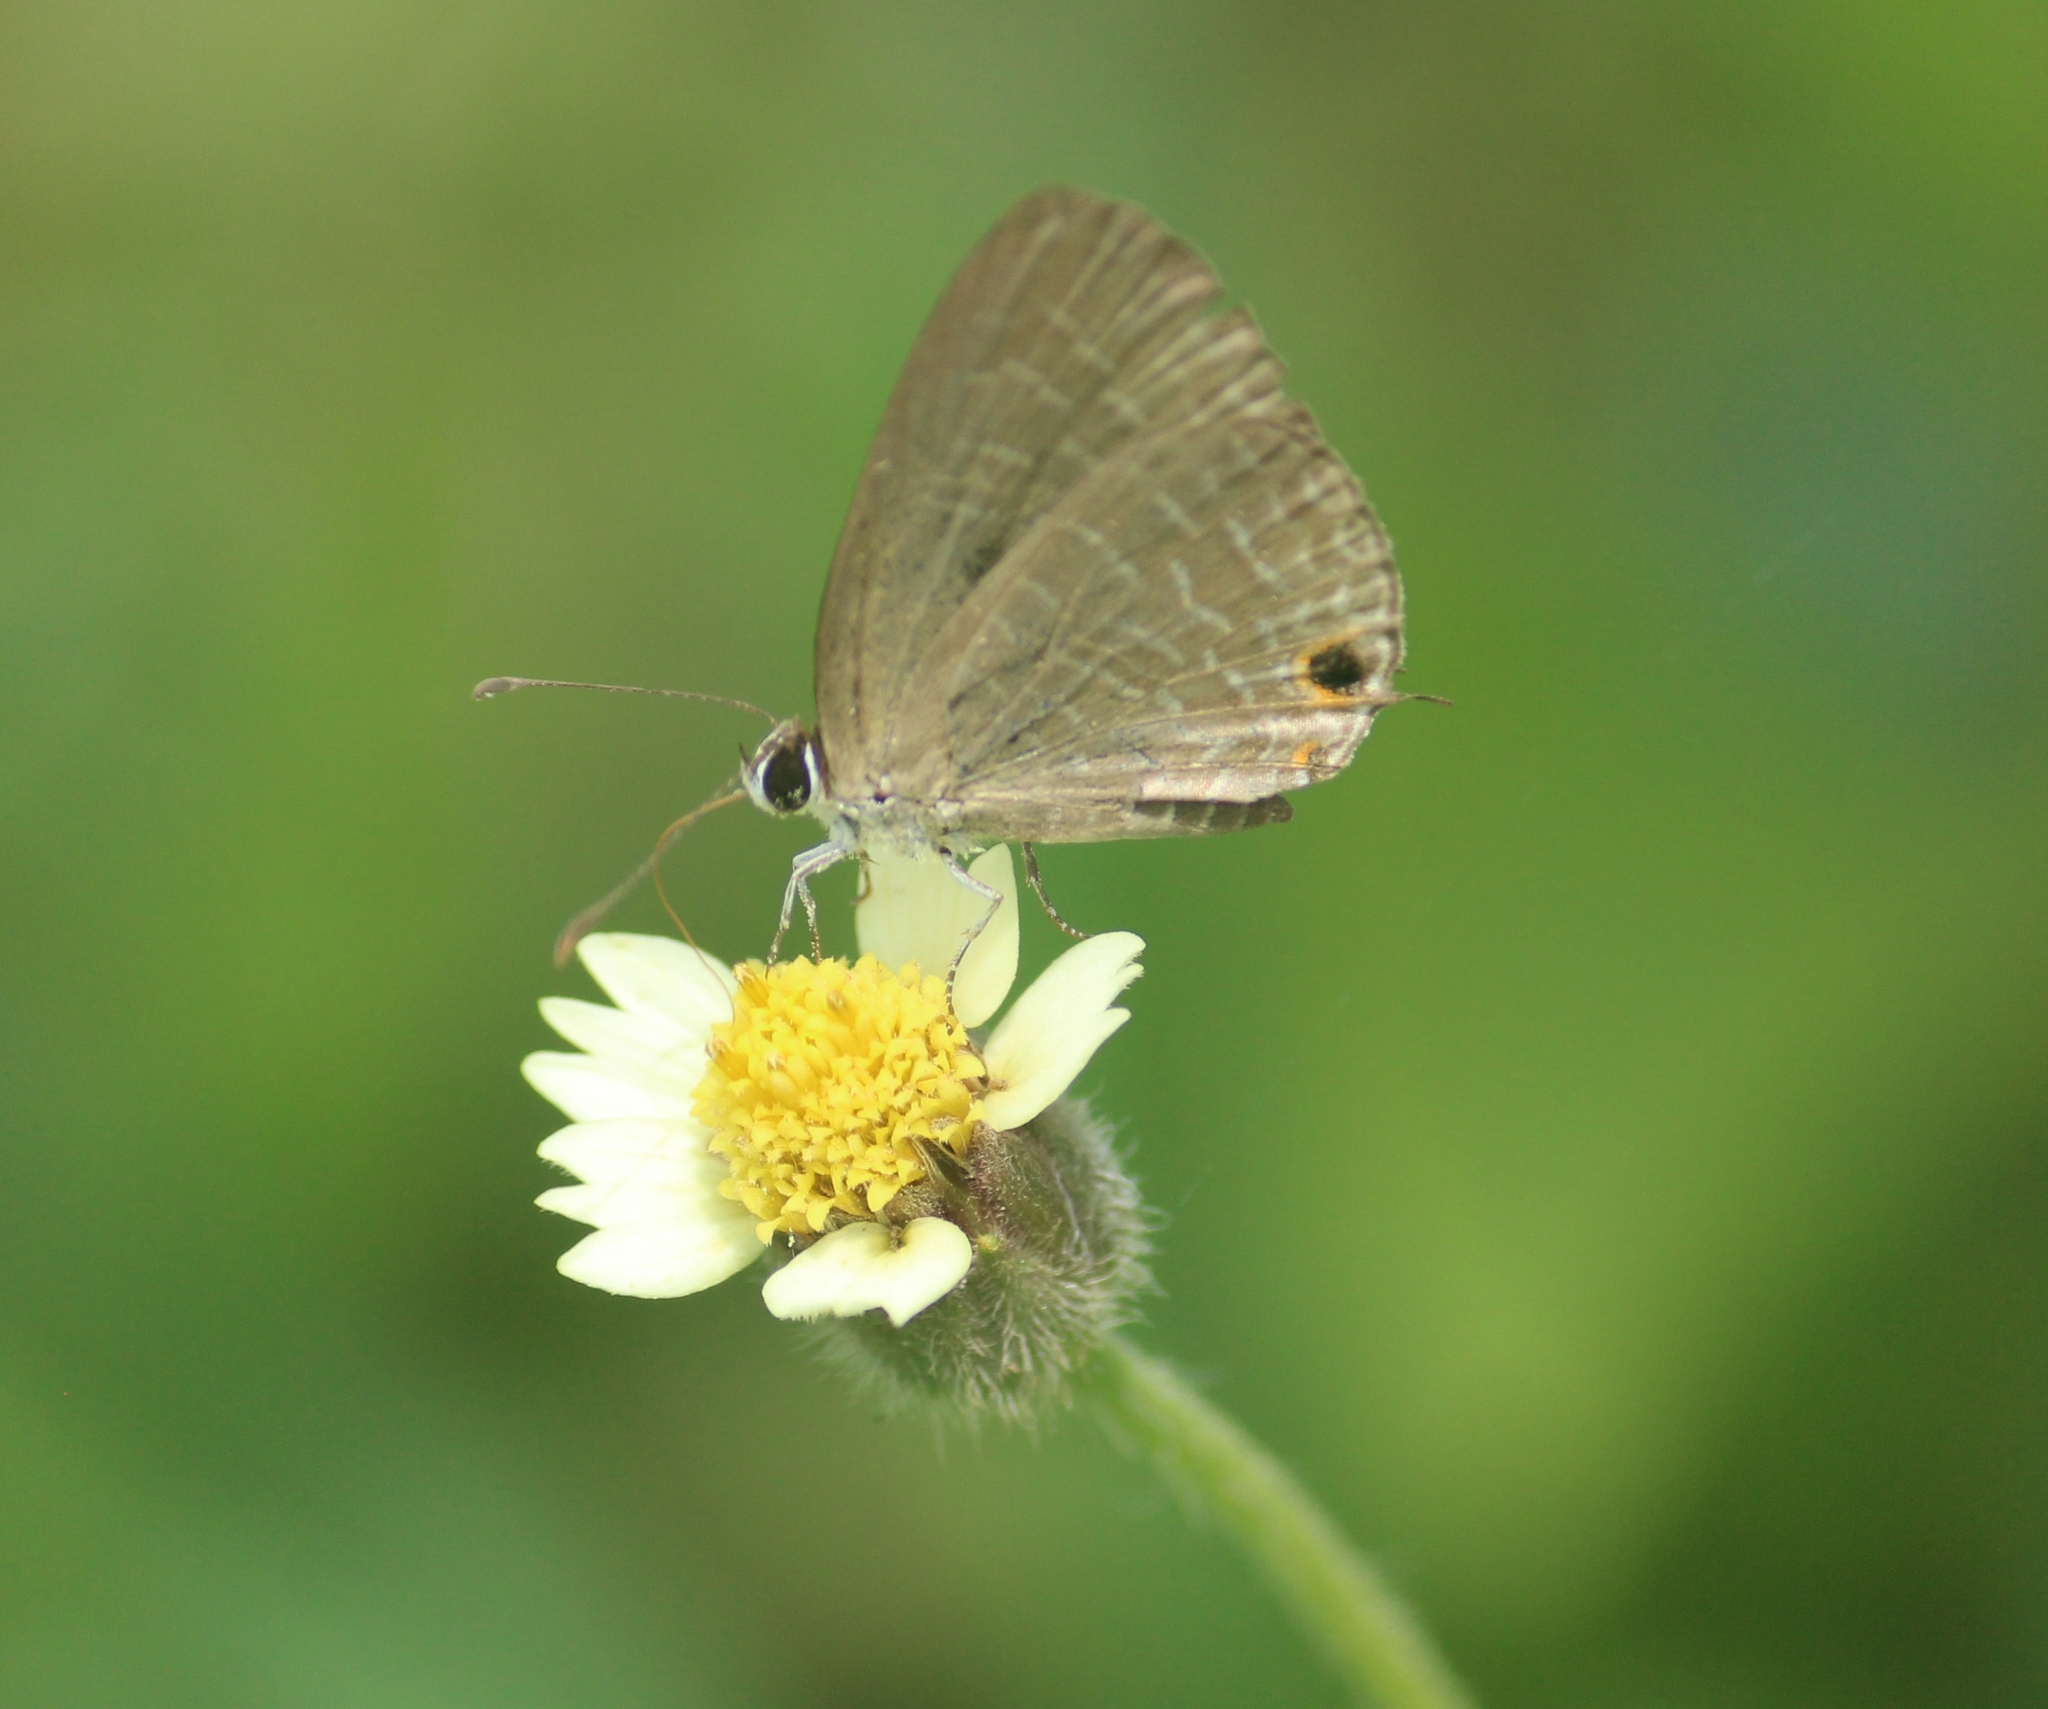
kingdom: Animalia
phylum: Arthropoda
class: Insecta
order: Lepidoptera
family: Lycaenidae
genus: Jamides
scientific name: Jamides bochus
